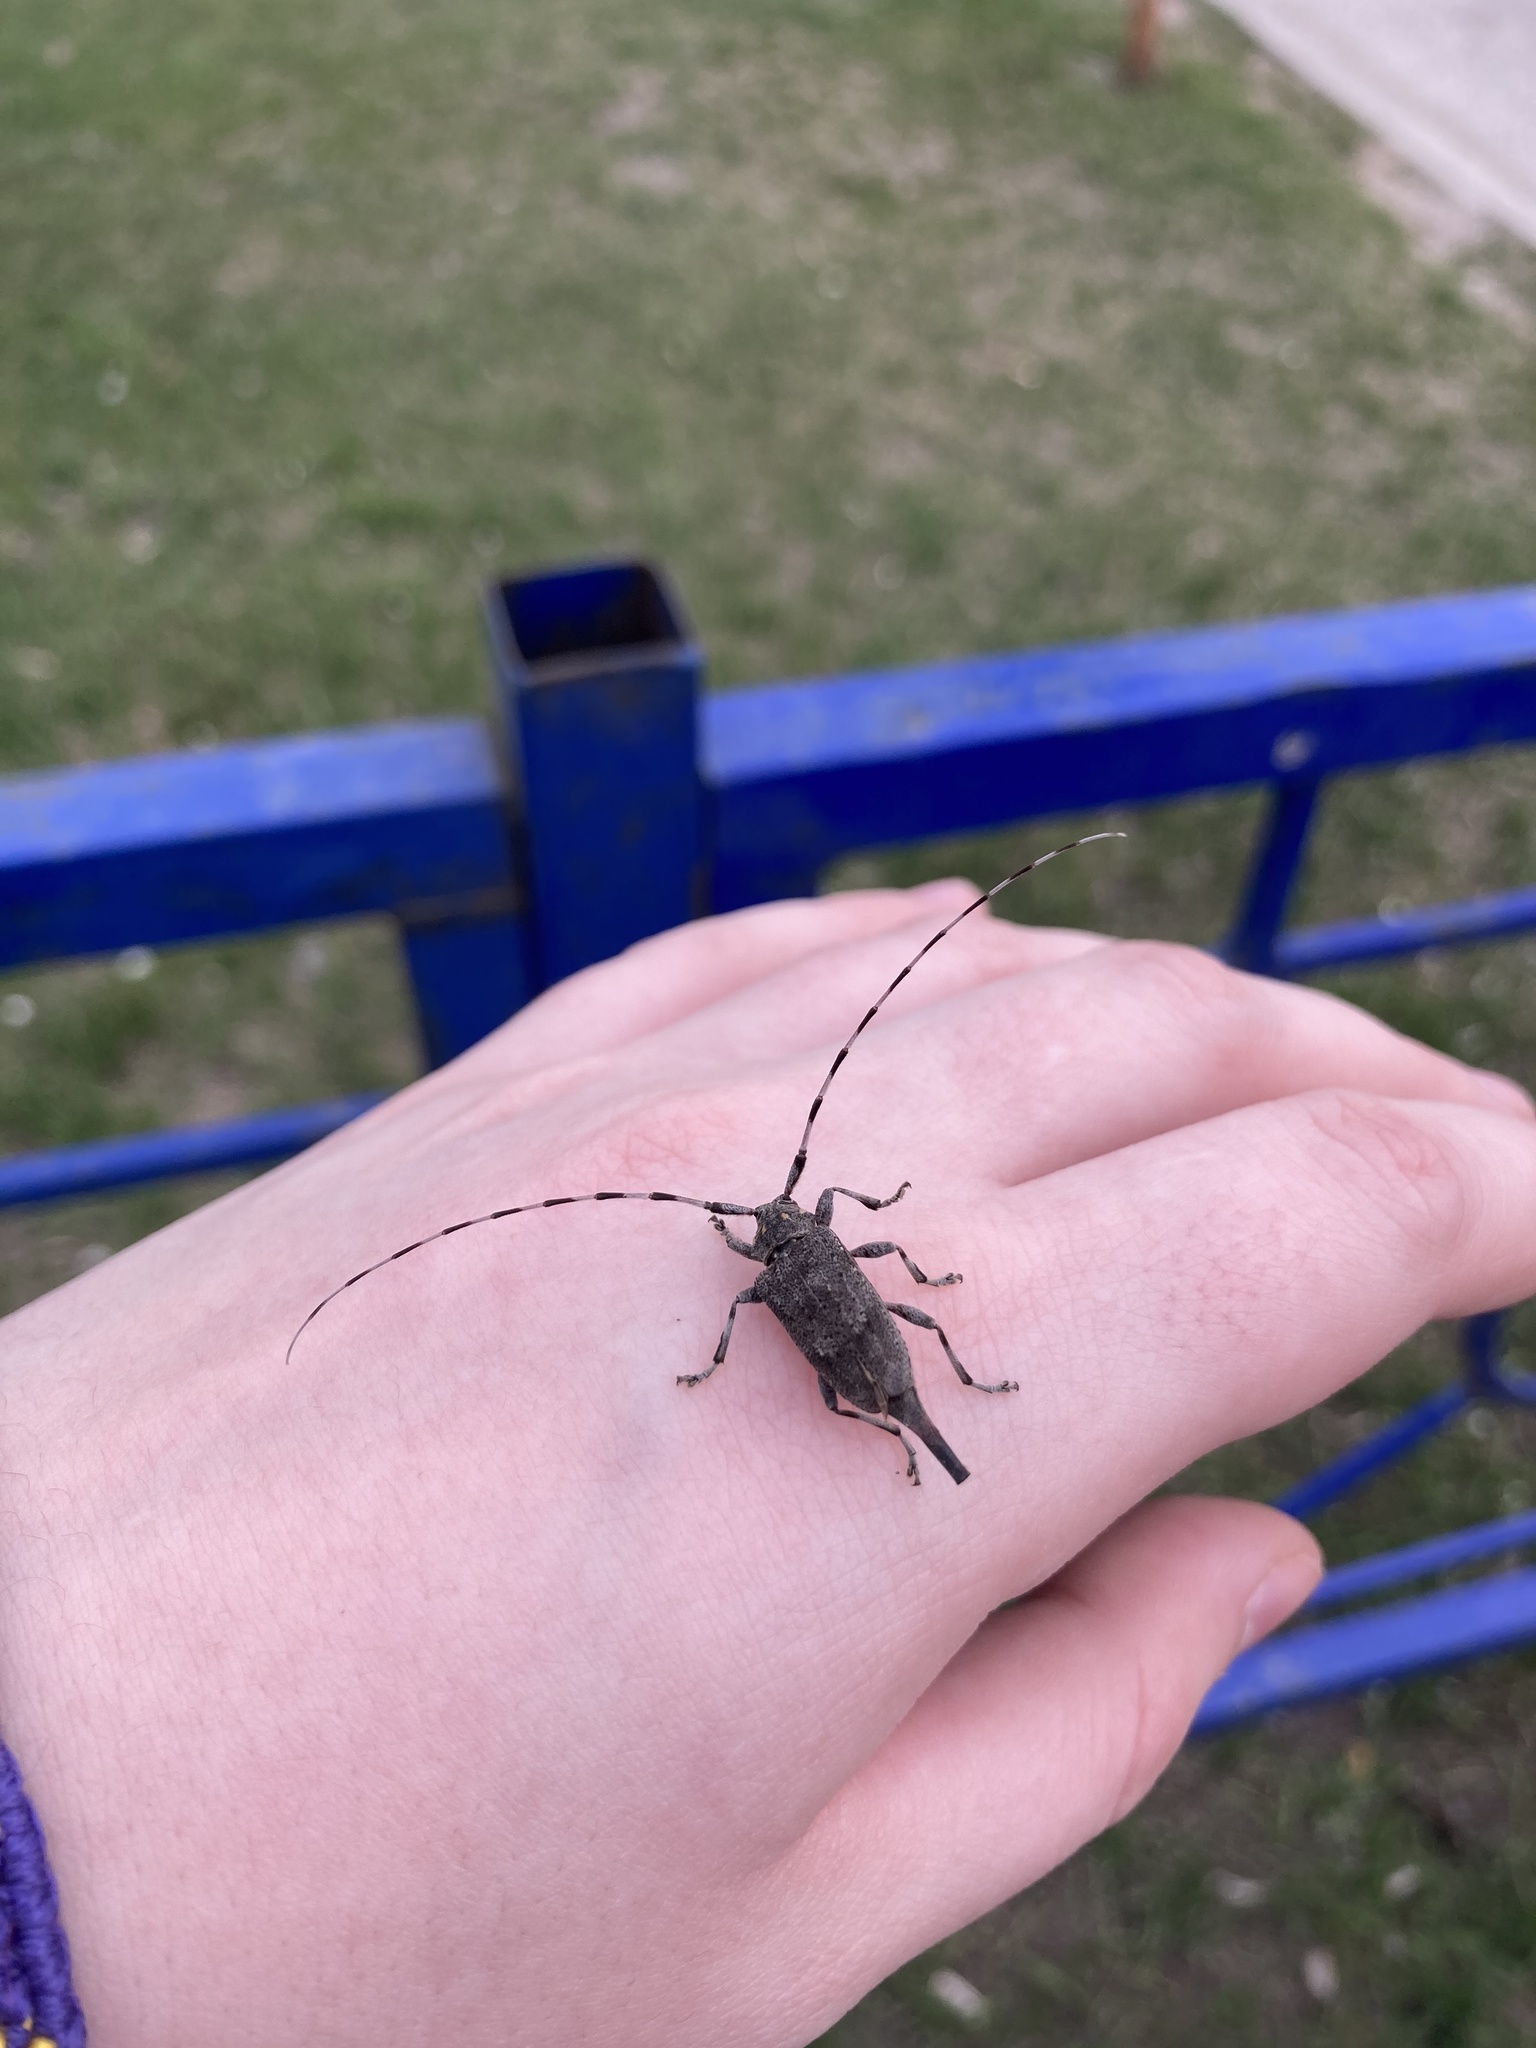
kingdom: Animalia
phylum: Arthropoda
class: Insecta
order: Coleoptera
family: Cerambycidae
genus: Acanthocinus
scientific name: Acanthocinus aedilis
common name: Timberman beetle
